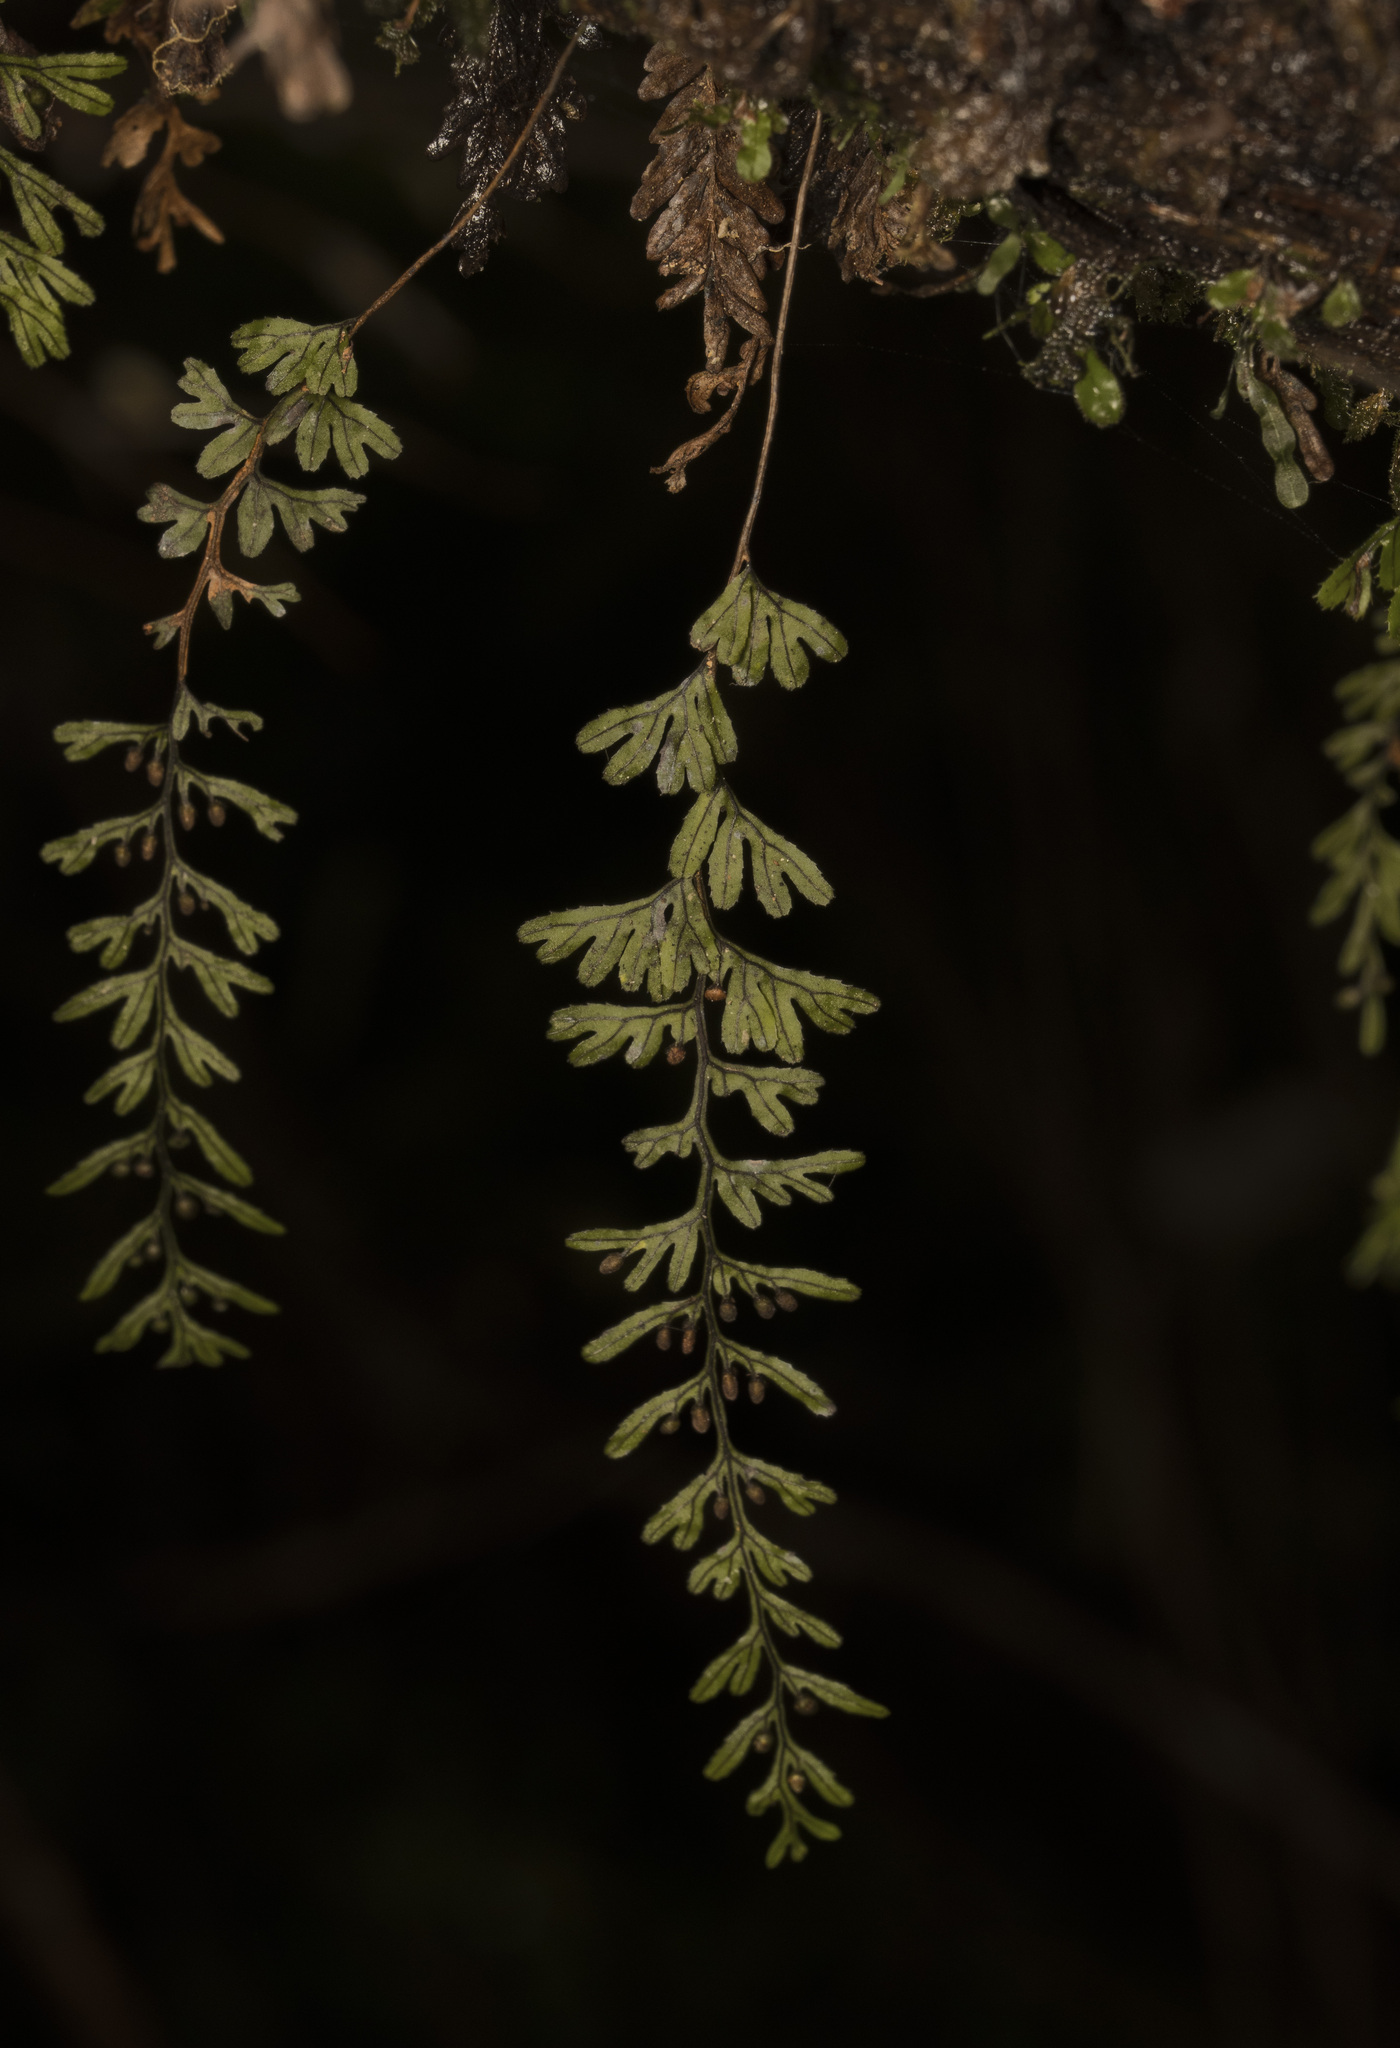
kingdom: Plantae
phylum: Tracheophyta
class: Polypodiopsida
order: Hymenophyllales
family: Hymenophyllaceae
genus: Hymenophyllum
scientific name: Hymenophyllum umbratile
